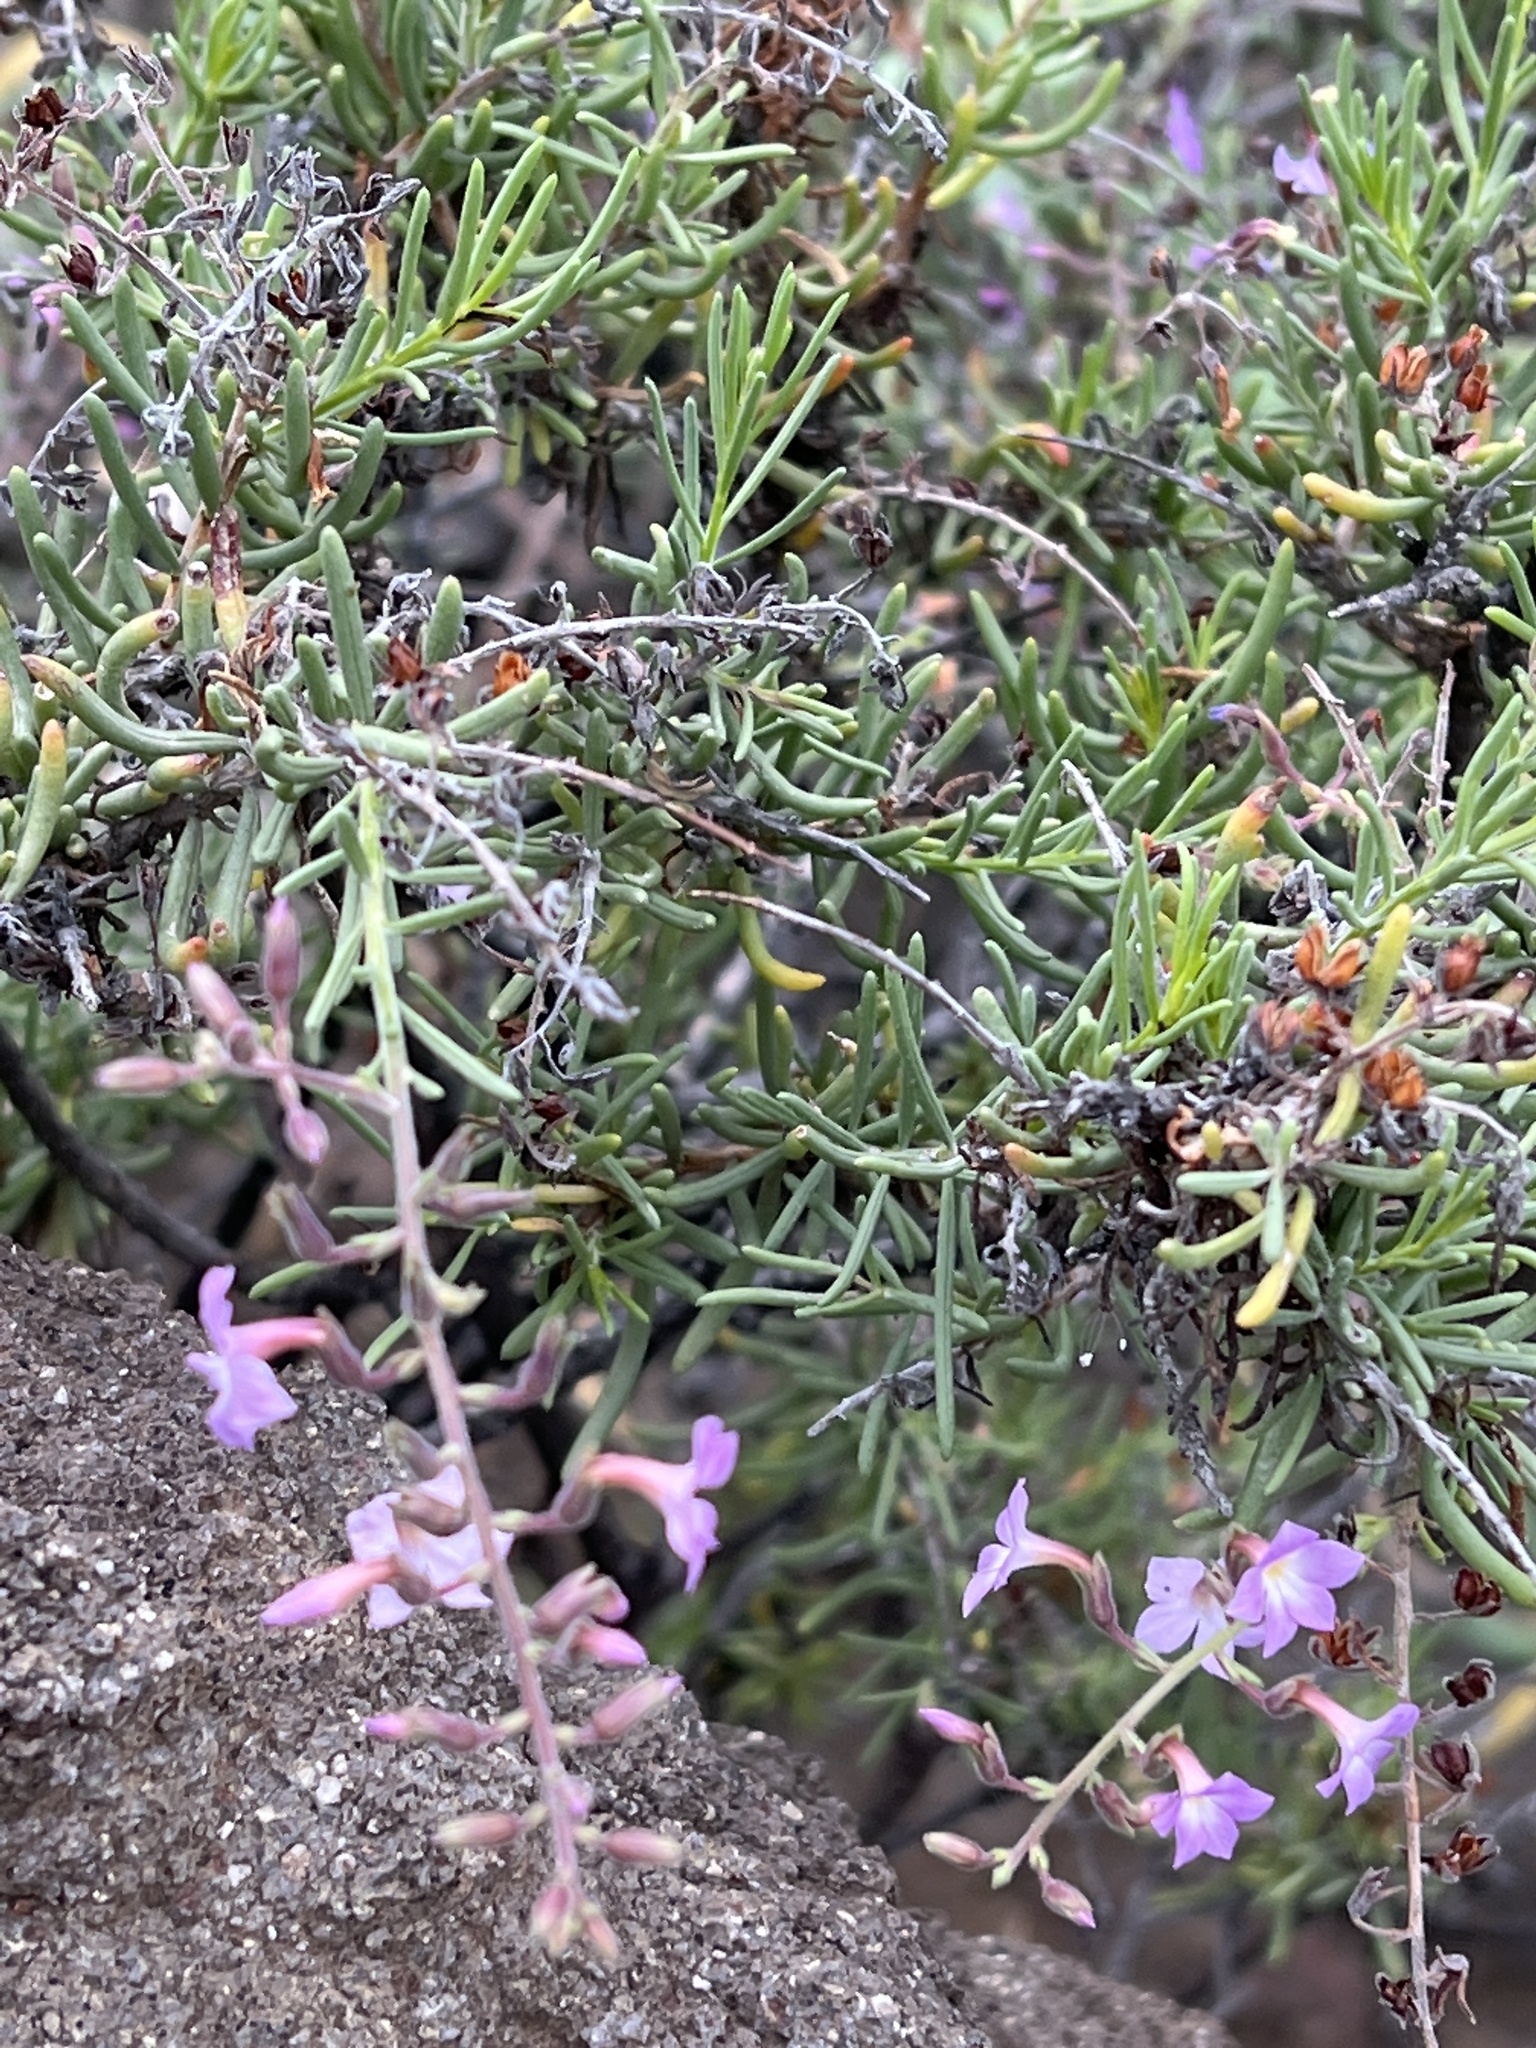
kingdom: Plantae
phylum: Tracheophyta
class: Magnoliopsida
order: Lamiales
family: Plantaginaceae
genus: Campylanthus
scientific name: Campylanthus salsoloides
